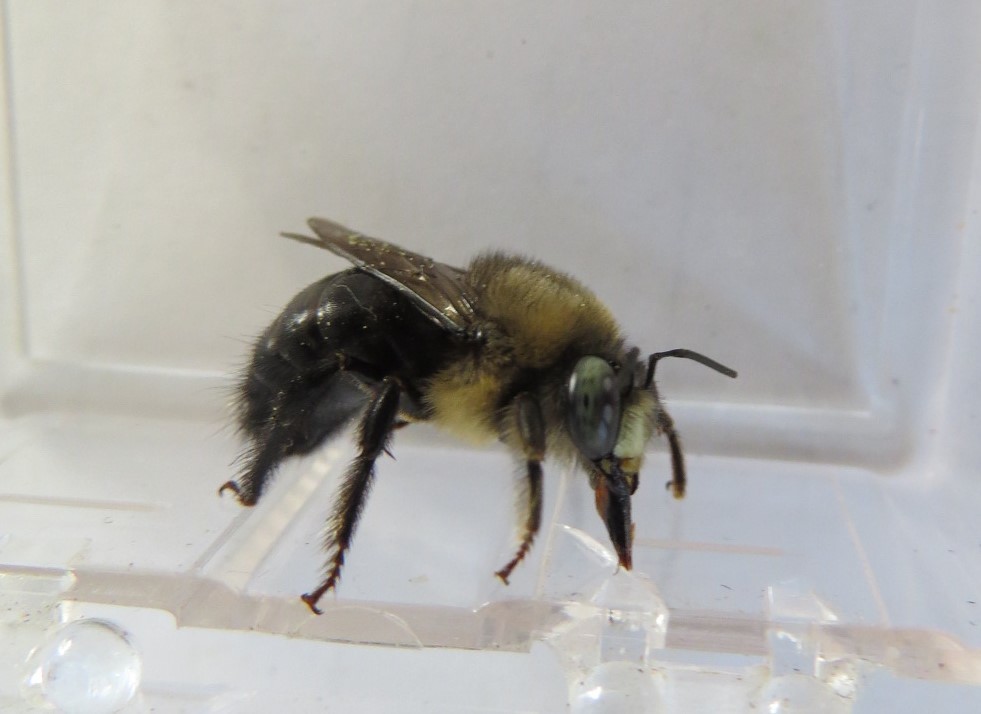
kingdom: Animalia
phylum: Arthropoda
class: Insecta
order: Hymenoptera
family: Apidae
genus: Xylocopa
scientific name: Xylocopa tabaniformis
